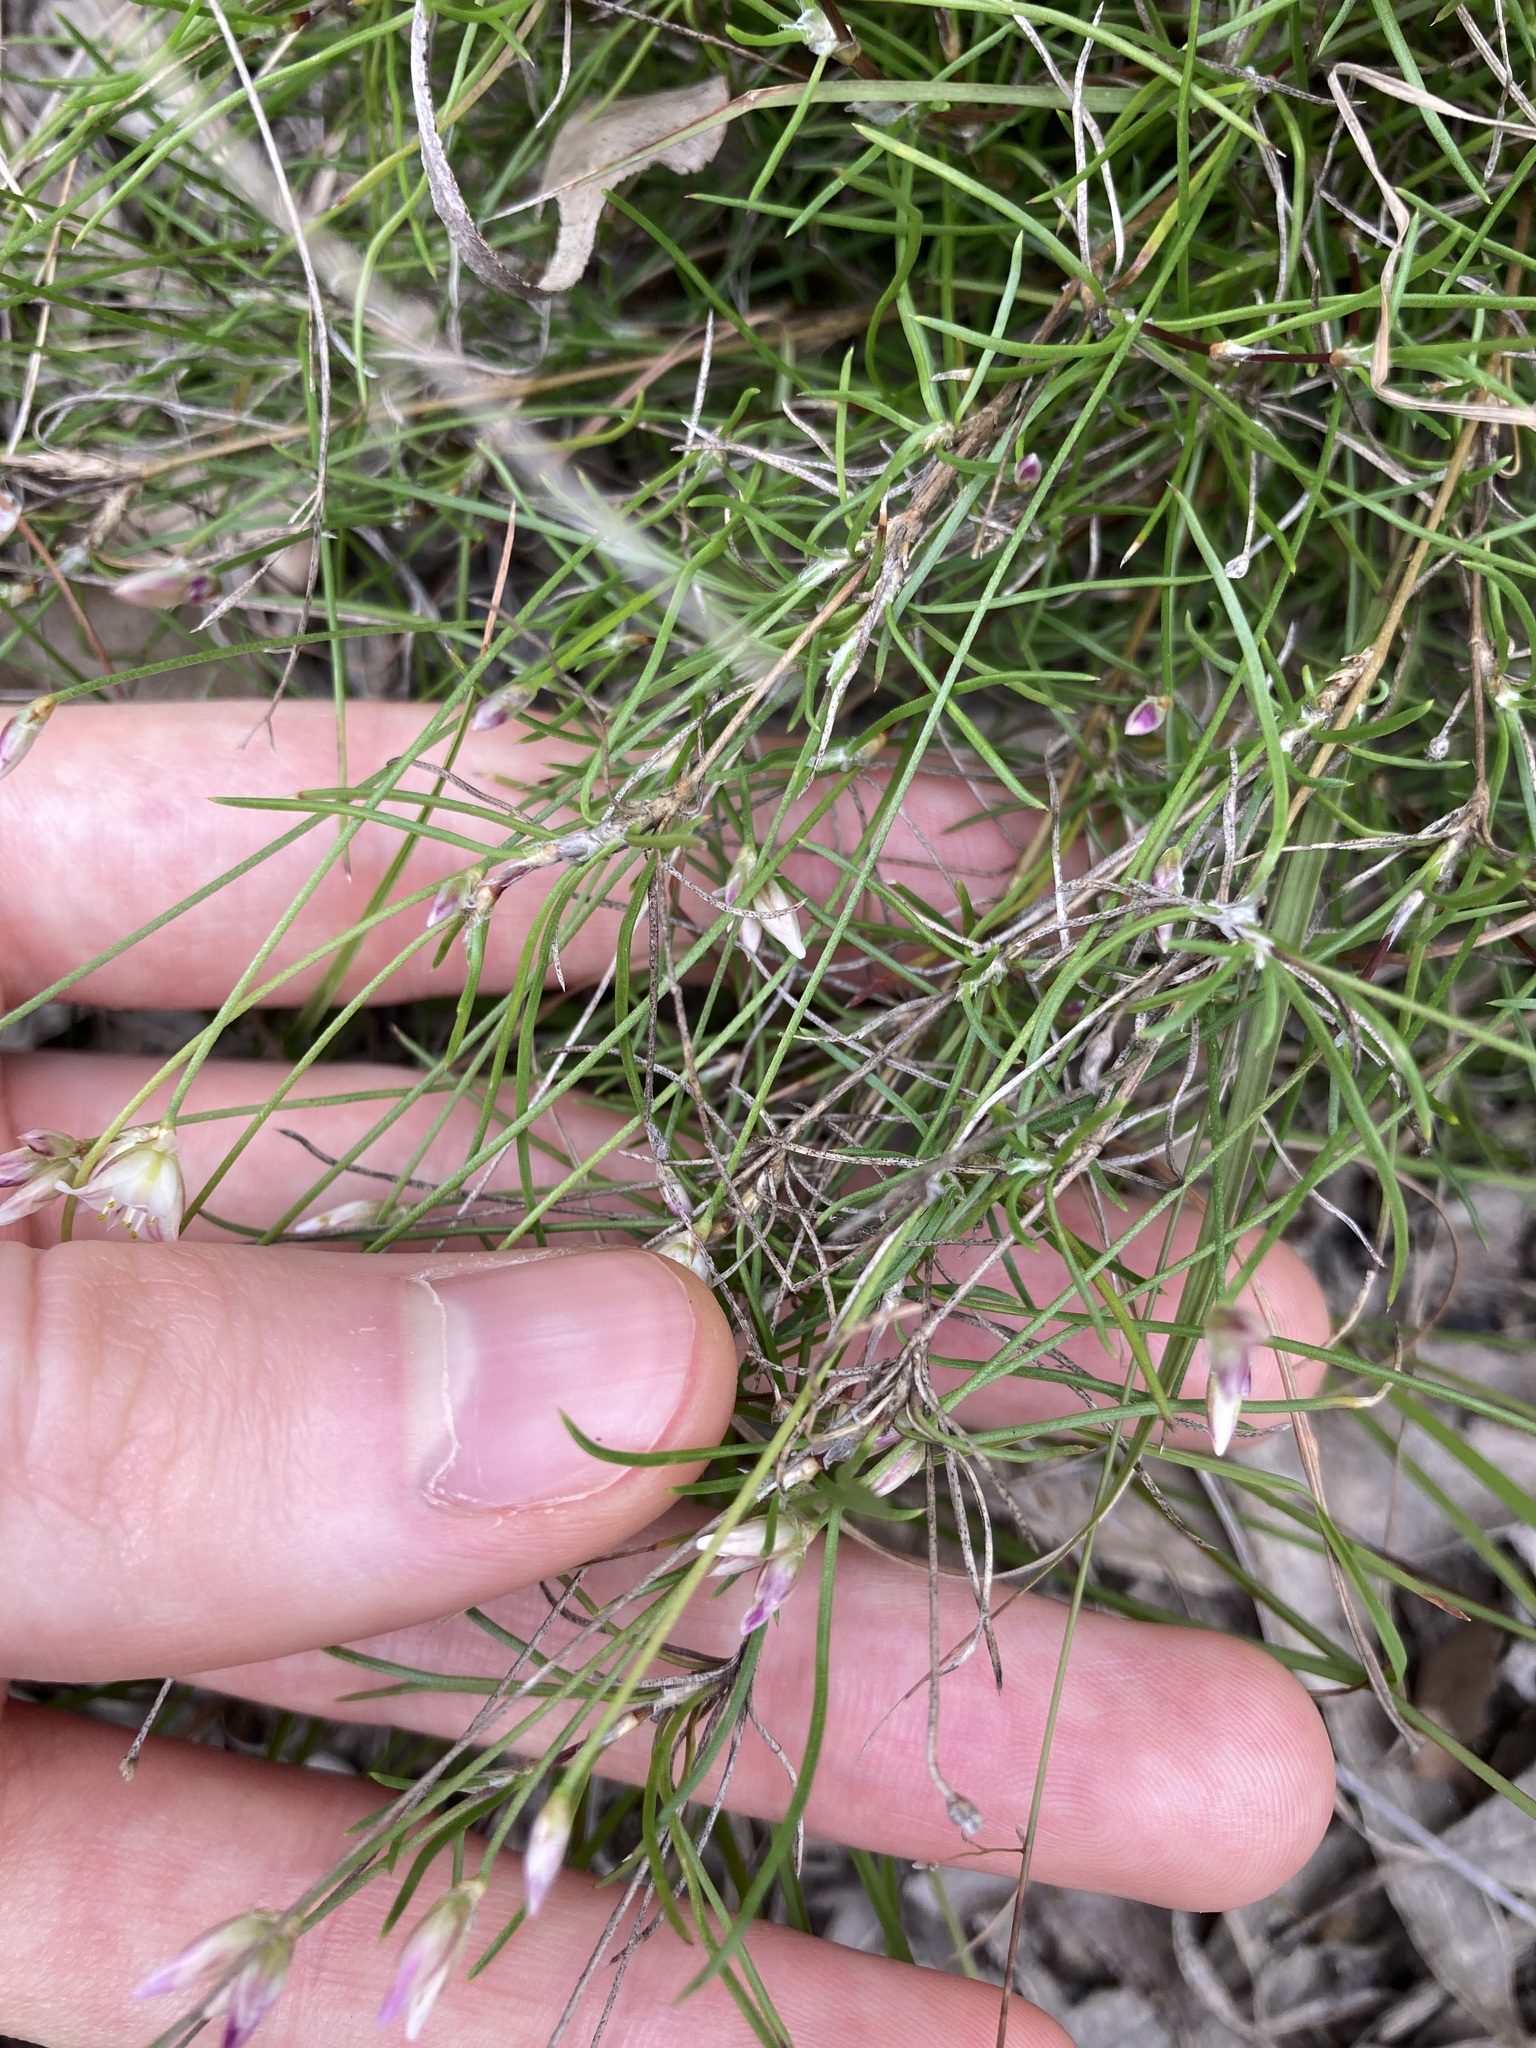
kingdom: Plantae
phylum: Tracheophyta
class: Liliopsida
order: Asparagales
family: Asparagaceae
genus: Laxmannia
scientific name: Laxmannia gracilis
